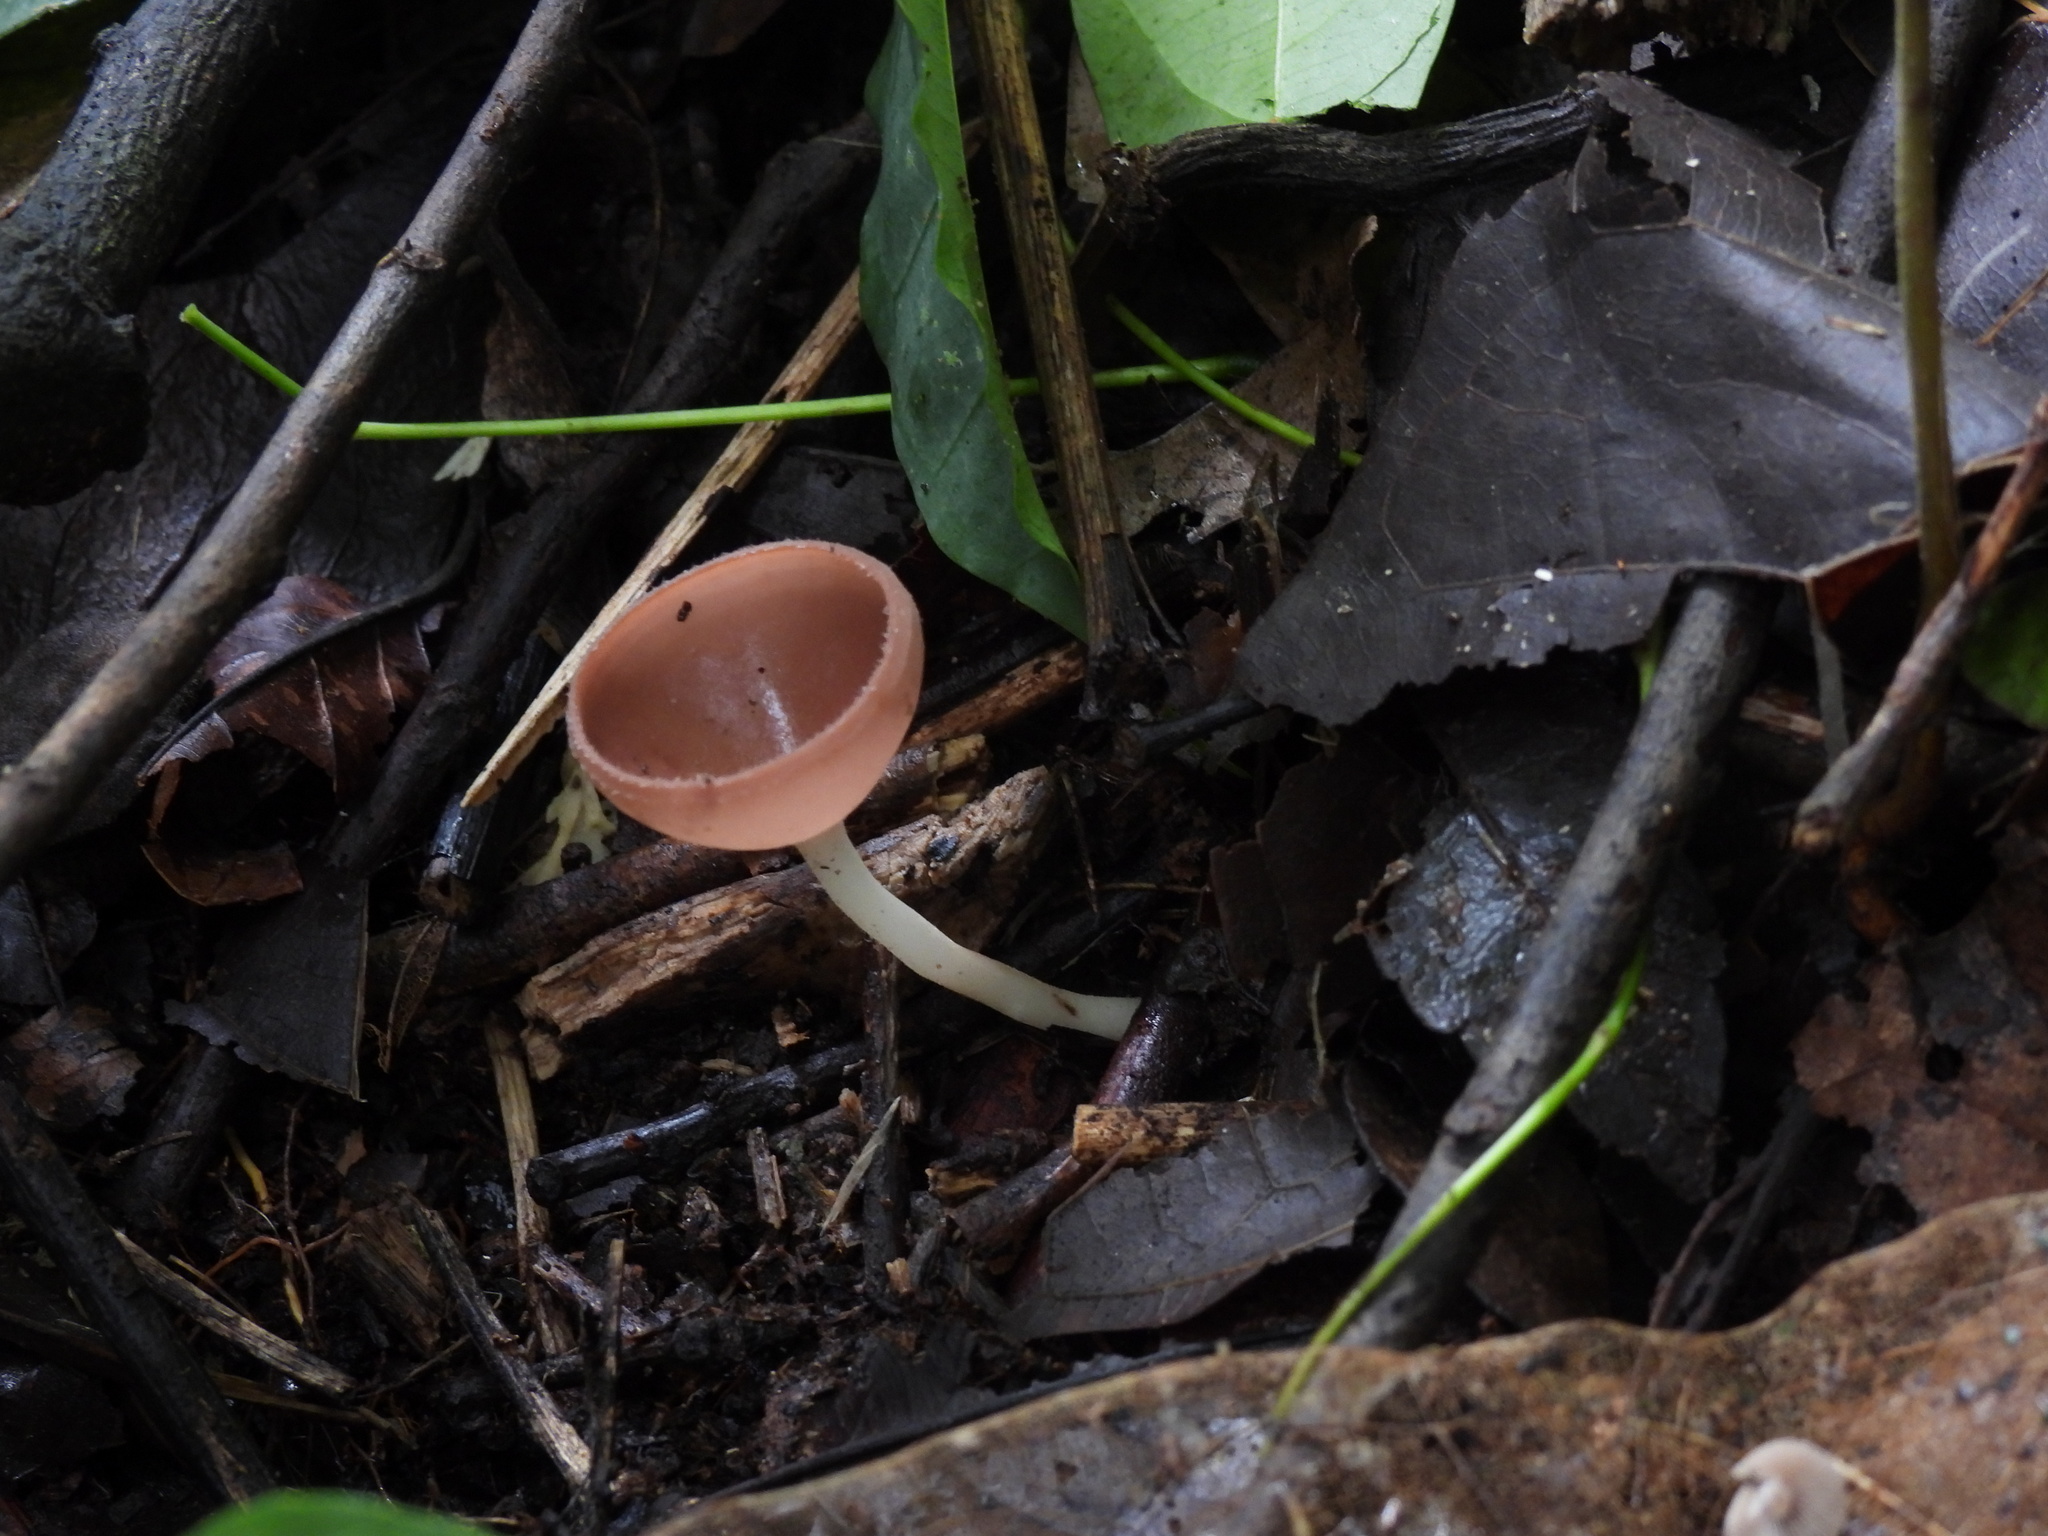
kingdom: Fungi
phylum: Ascomycota
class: Pezizomycetes
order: Pezizales
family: Sarcoscyphaceae
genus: Cookeina
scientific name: Cookeina speciosa
